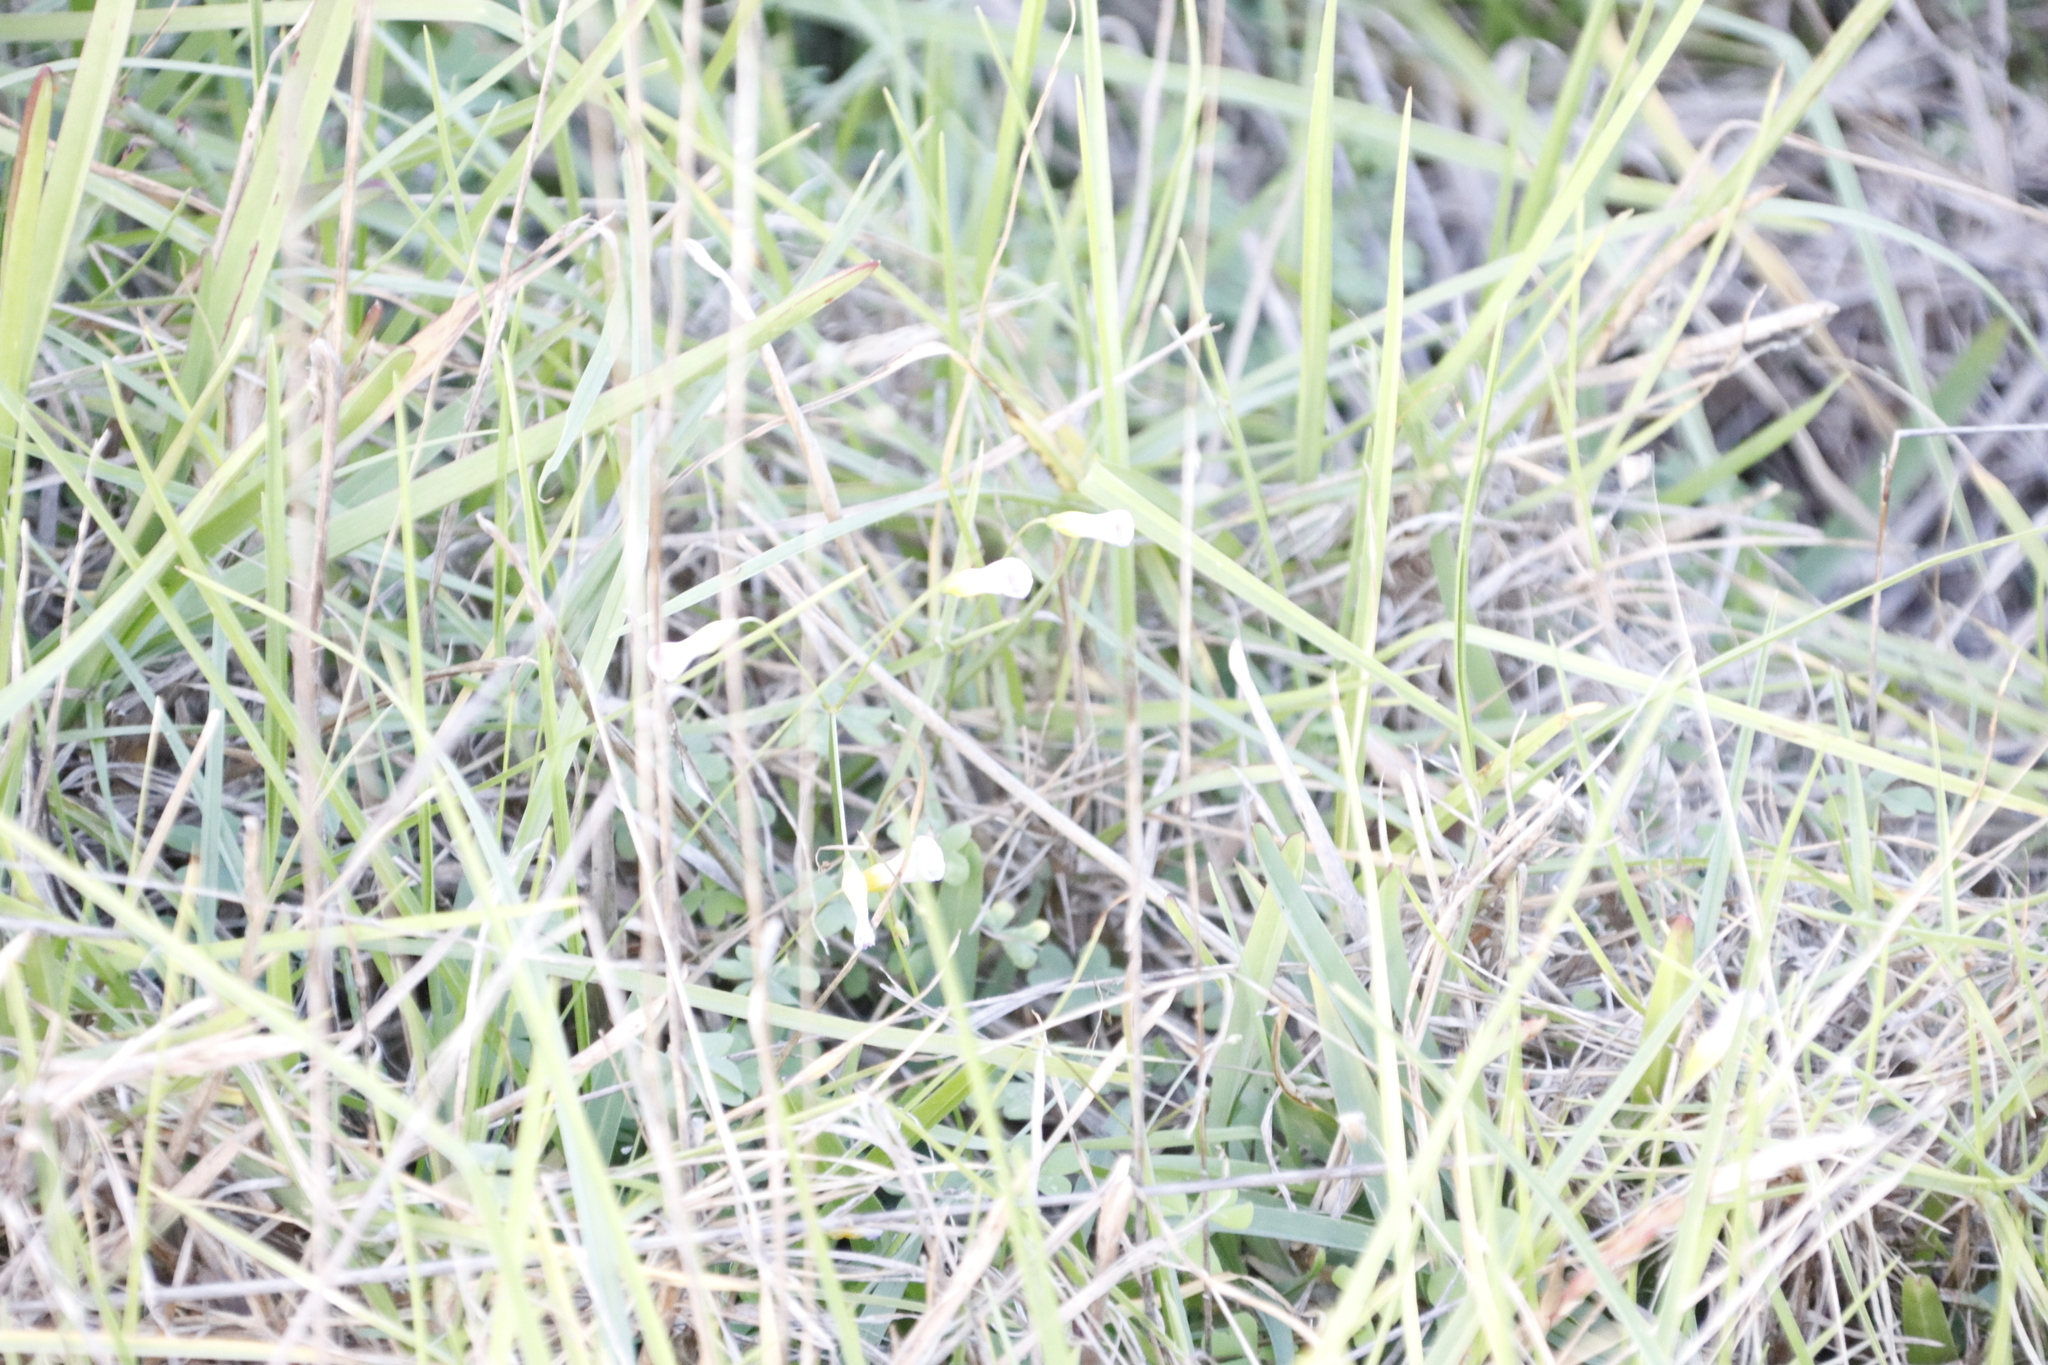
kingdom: Plantae
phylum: Tracheophyta
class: Magnoliopsida
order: Oxalidales
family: Oxalidaceae
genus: Oxalis
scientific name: Oxalis pes-caprae
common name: Bermuda-buttercup
